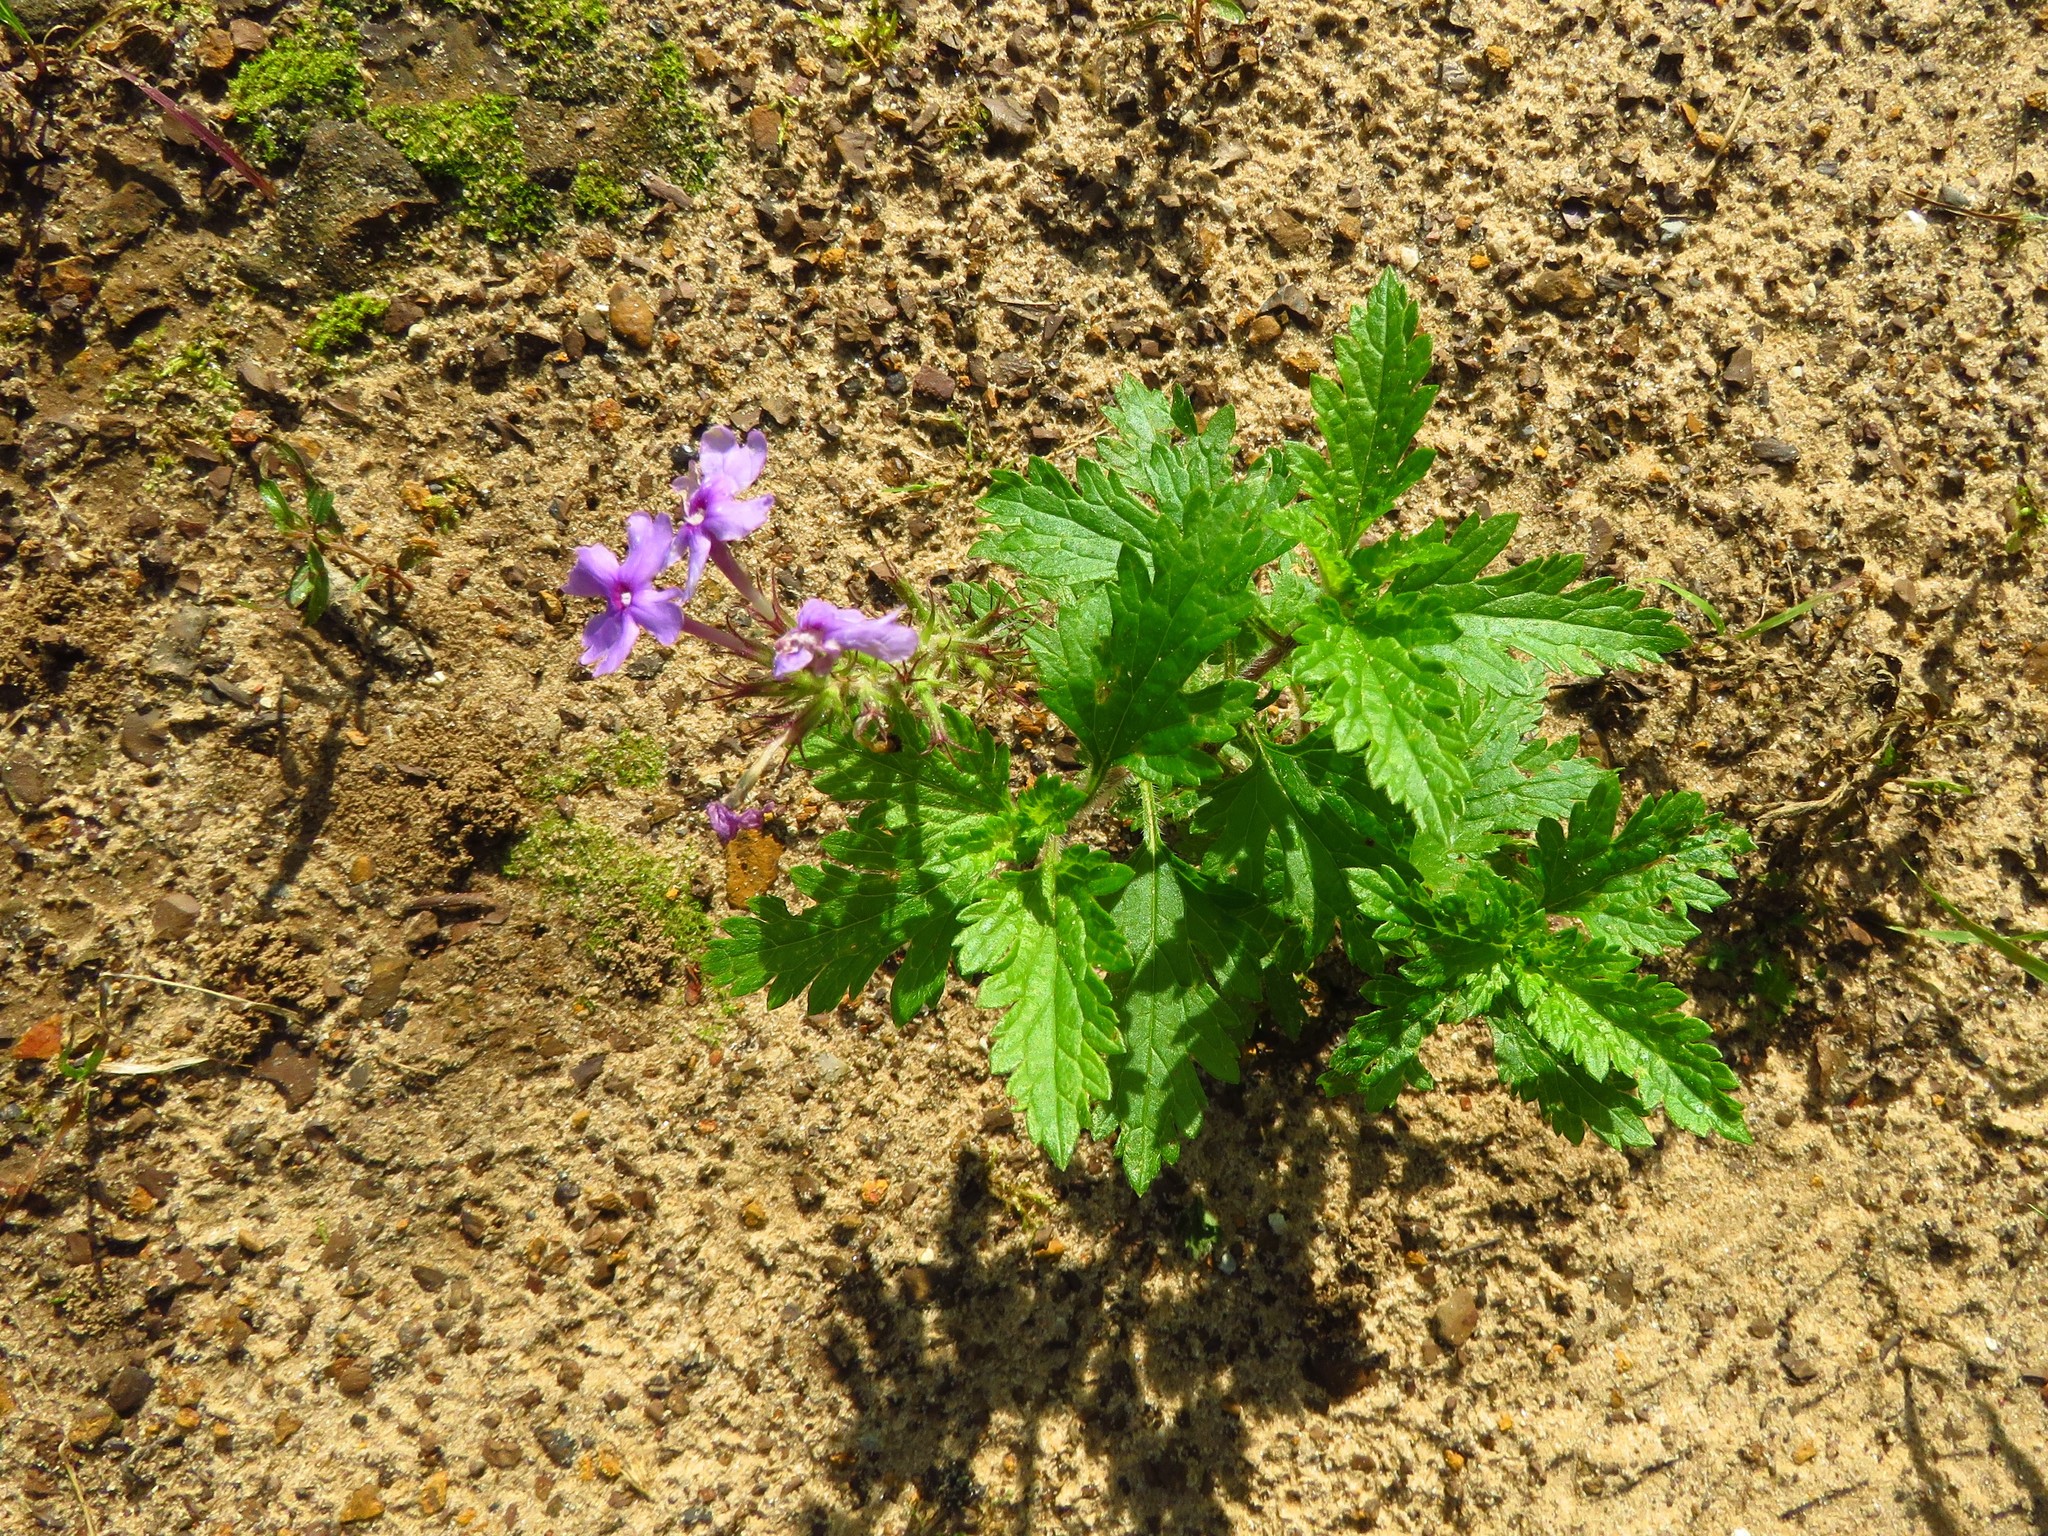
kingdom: Plantae
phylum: Tracheophyta
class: Magnoliopsida
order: Lamiales
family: Verbenaceae
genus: Verbena
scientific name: Verbena canadensis
